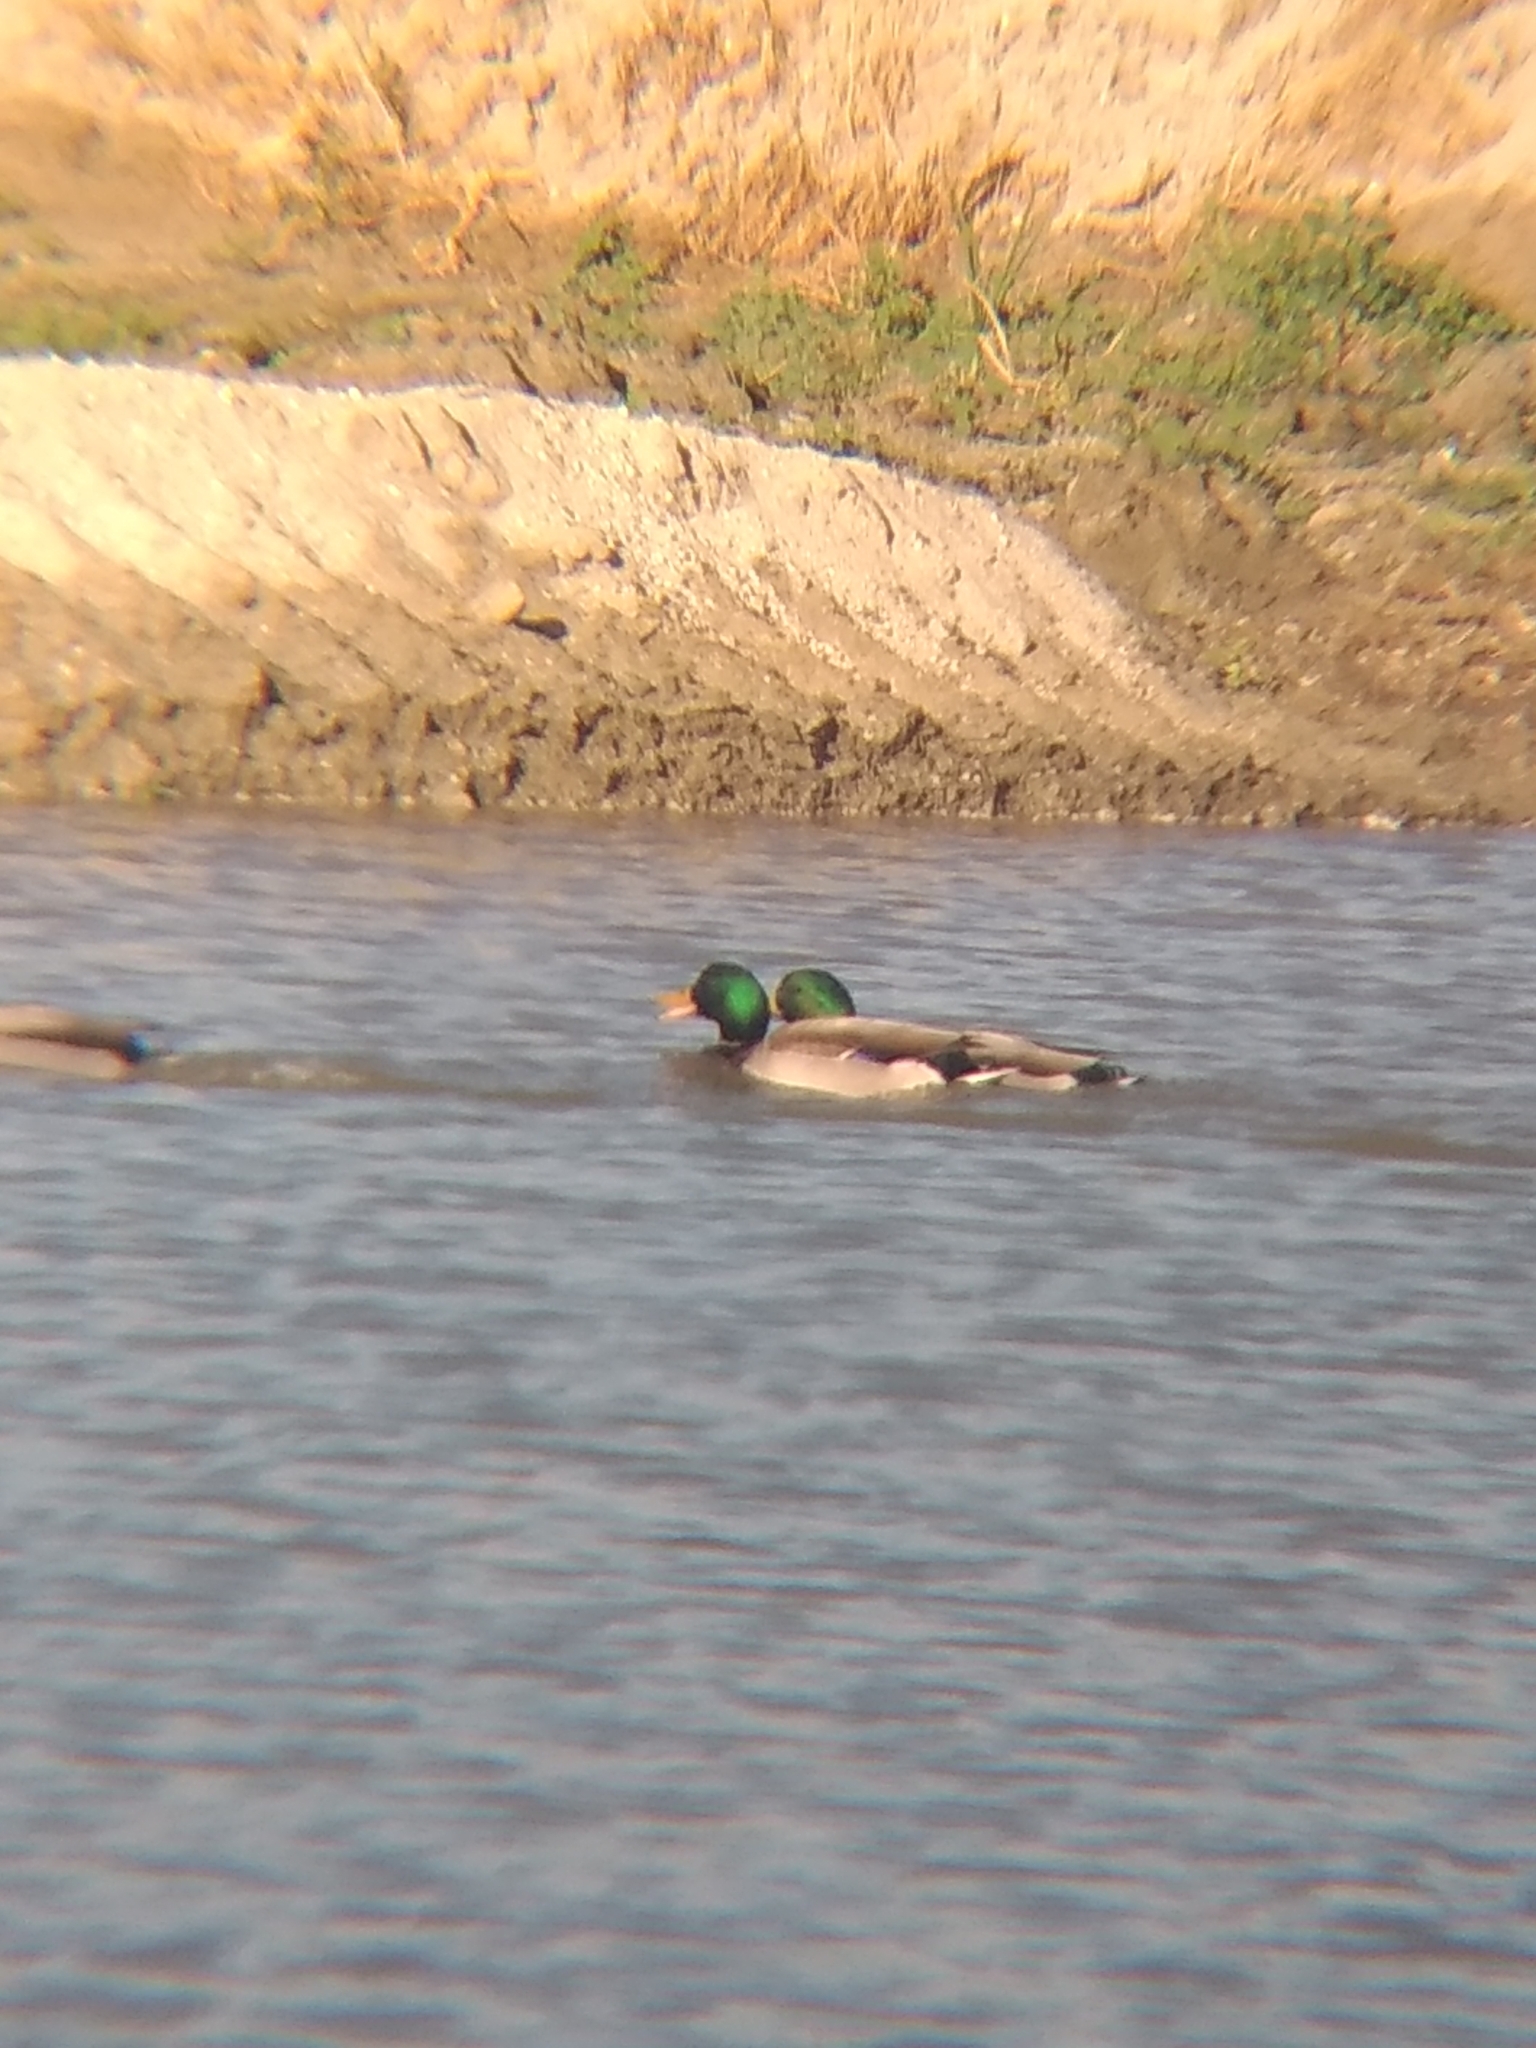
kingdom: Animalia
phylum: Chordata
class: Aves
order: Anseriformes
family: Anatidae
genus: Anas
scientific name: Anas platyrhynchos
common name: Mallard
